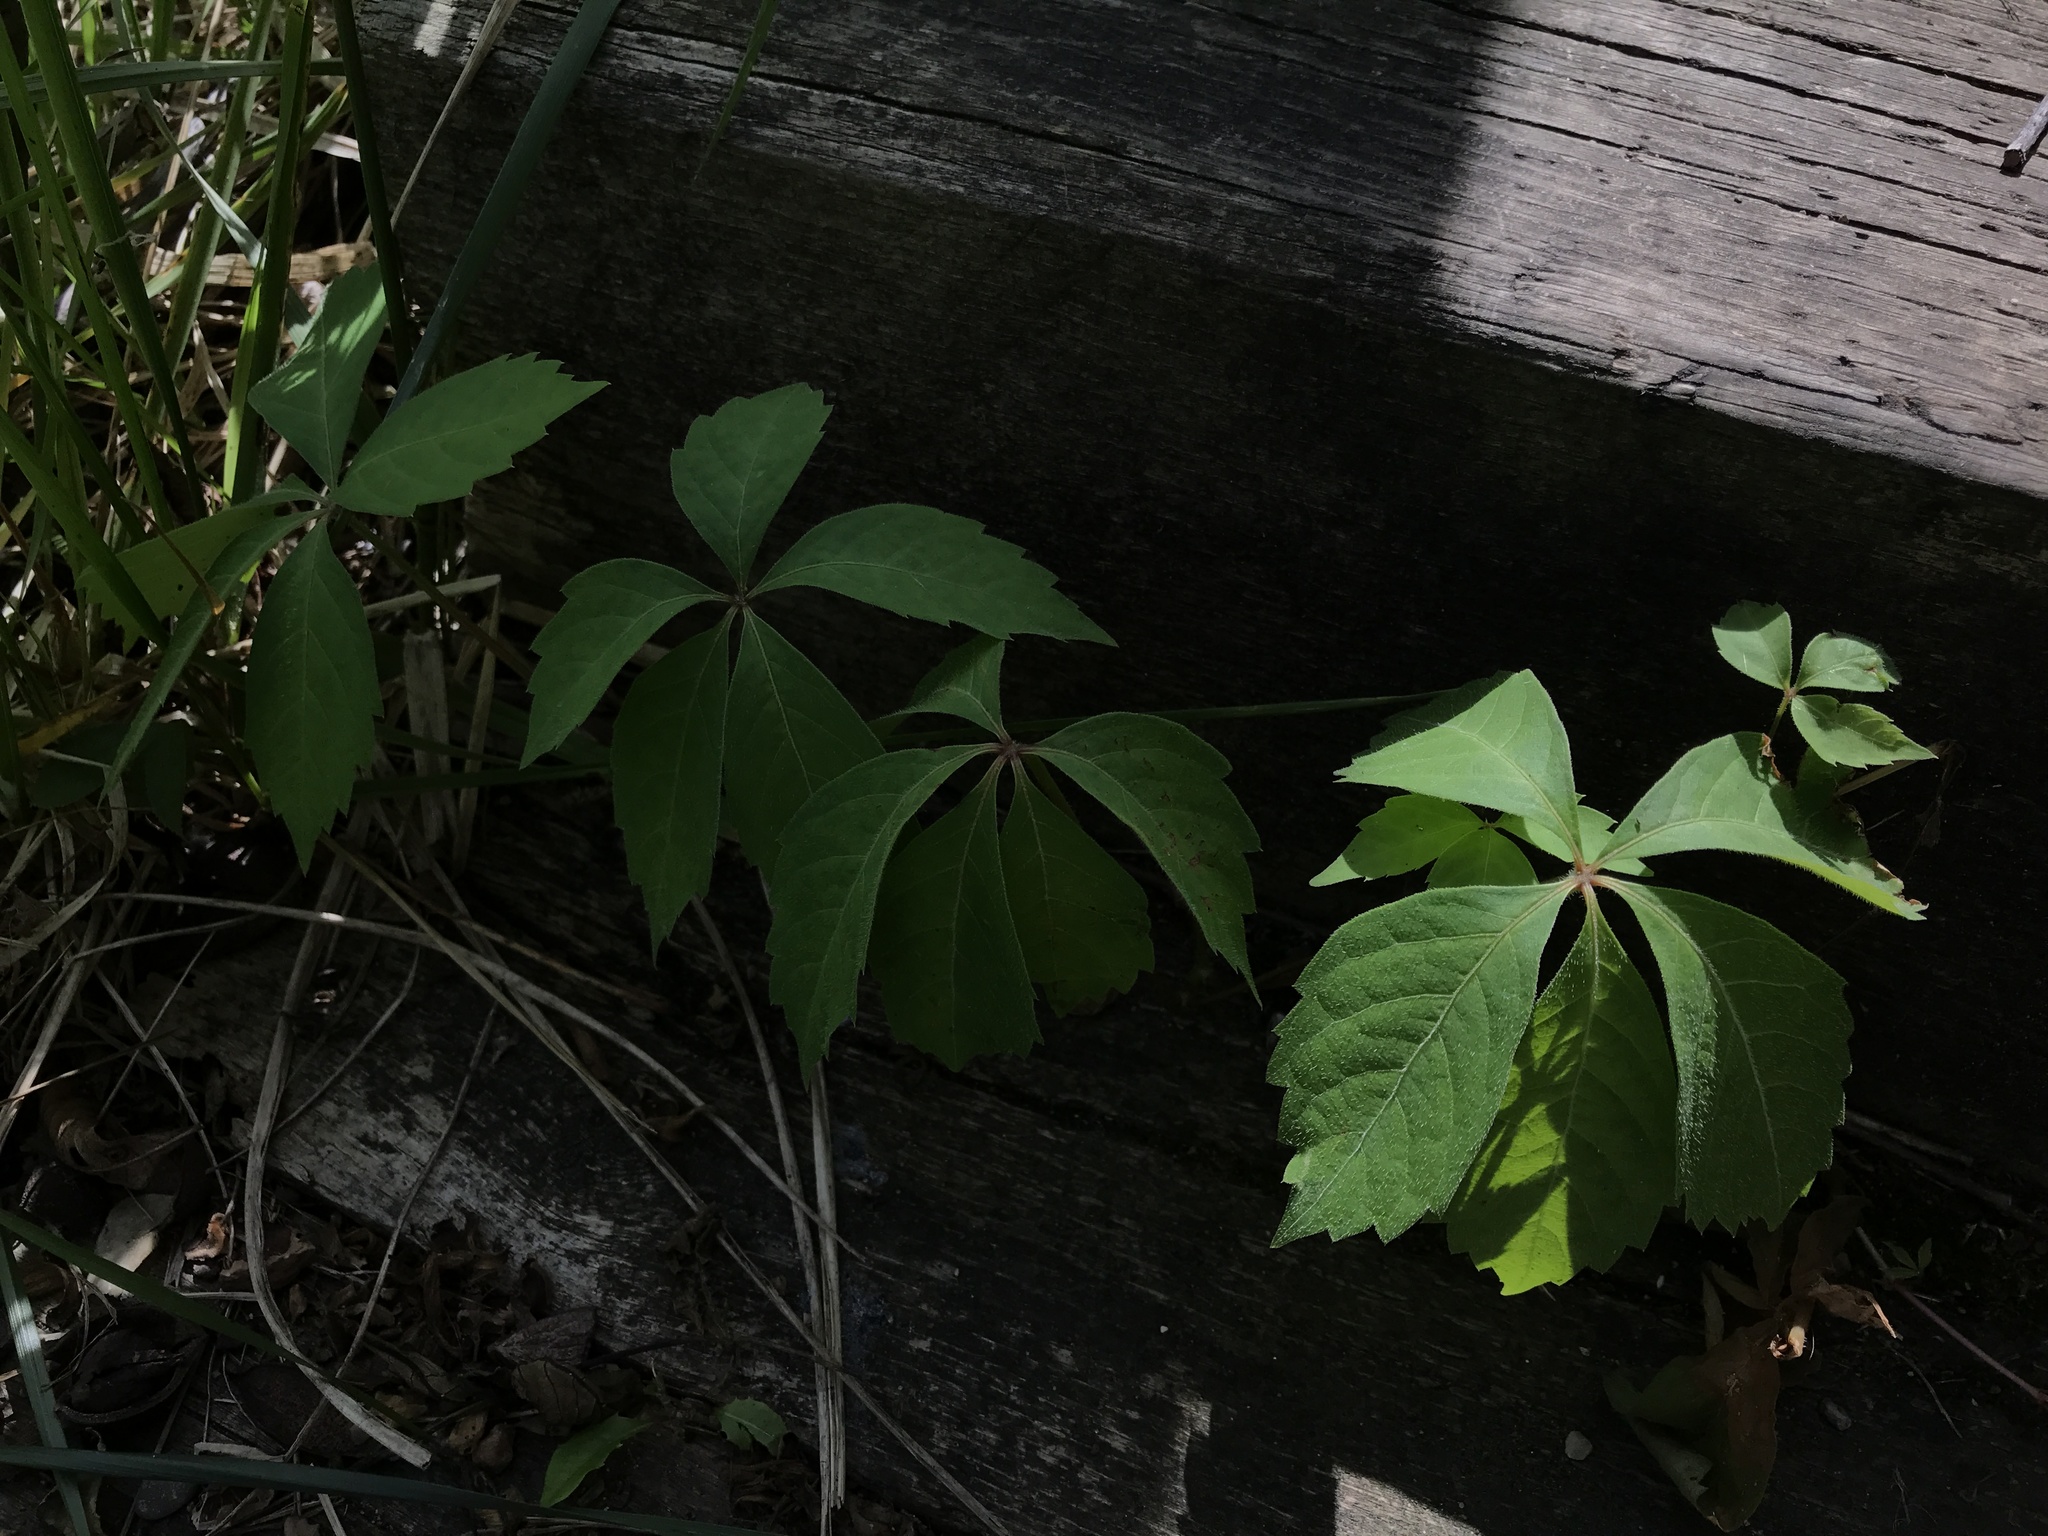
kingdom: Plantae
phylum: Tracheophyta
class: Magnoliopsida
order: Vitales
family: Vitaceae
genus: Parthenocissus
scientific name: Parthenocissus quinquefolia
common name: Virginia-creeper
